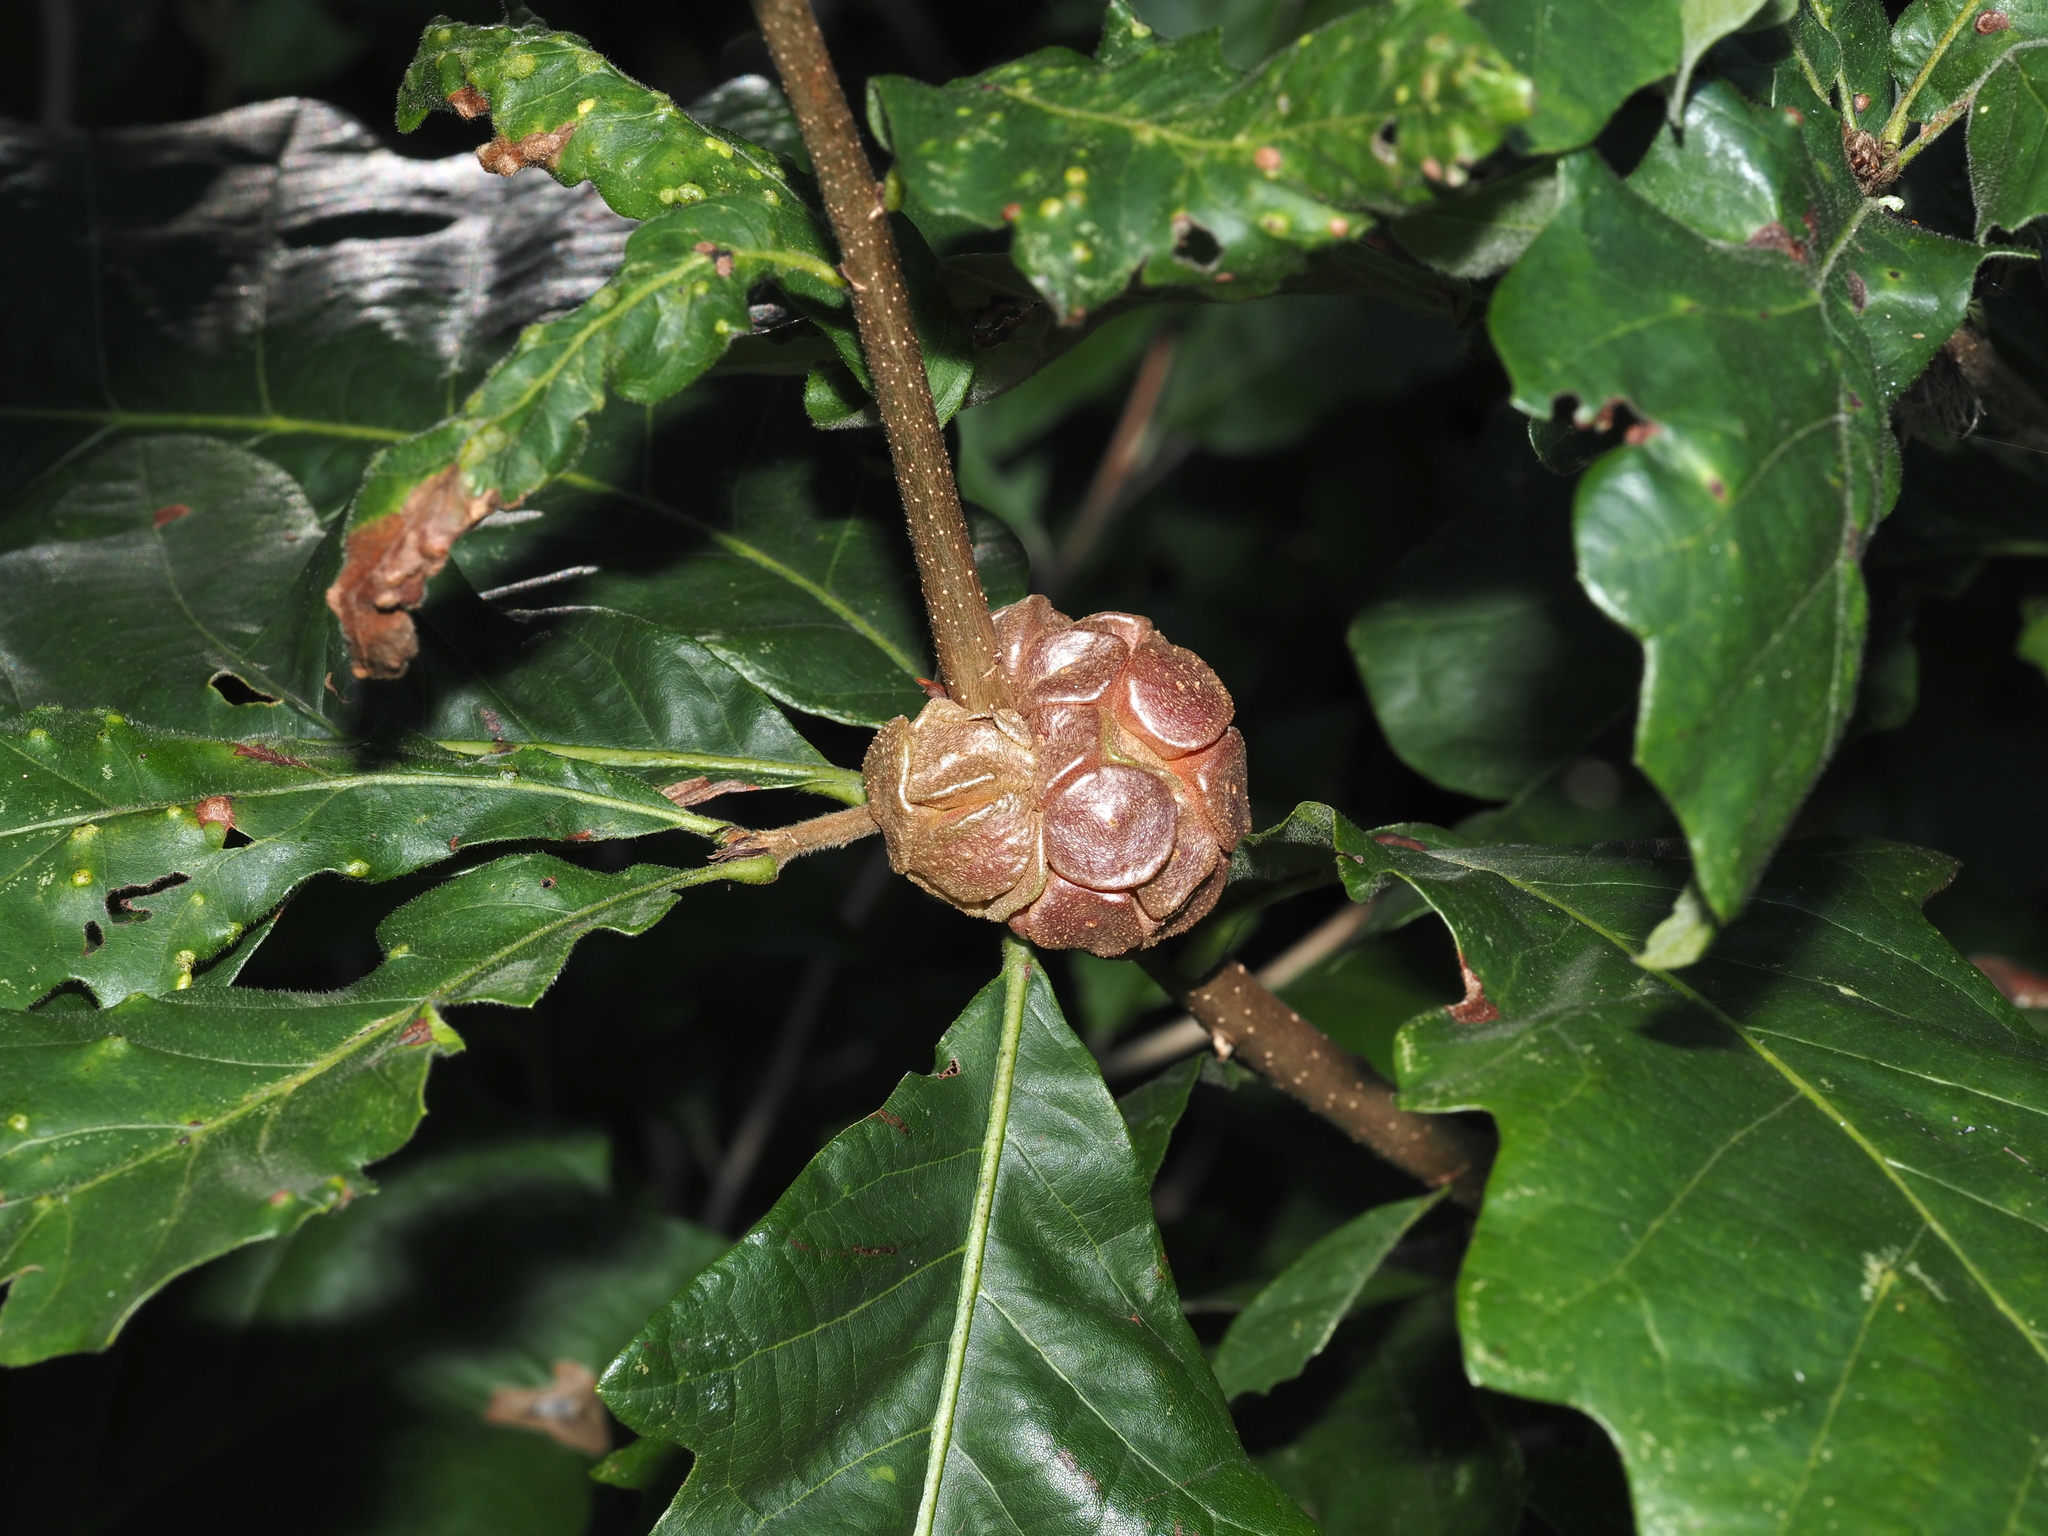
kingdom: Animalia
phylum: Arthropoda
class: Insecta
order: Hymenoptera
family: Cynipidae
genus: Andricus
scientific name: Andricus
